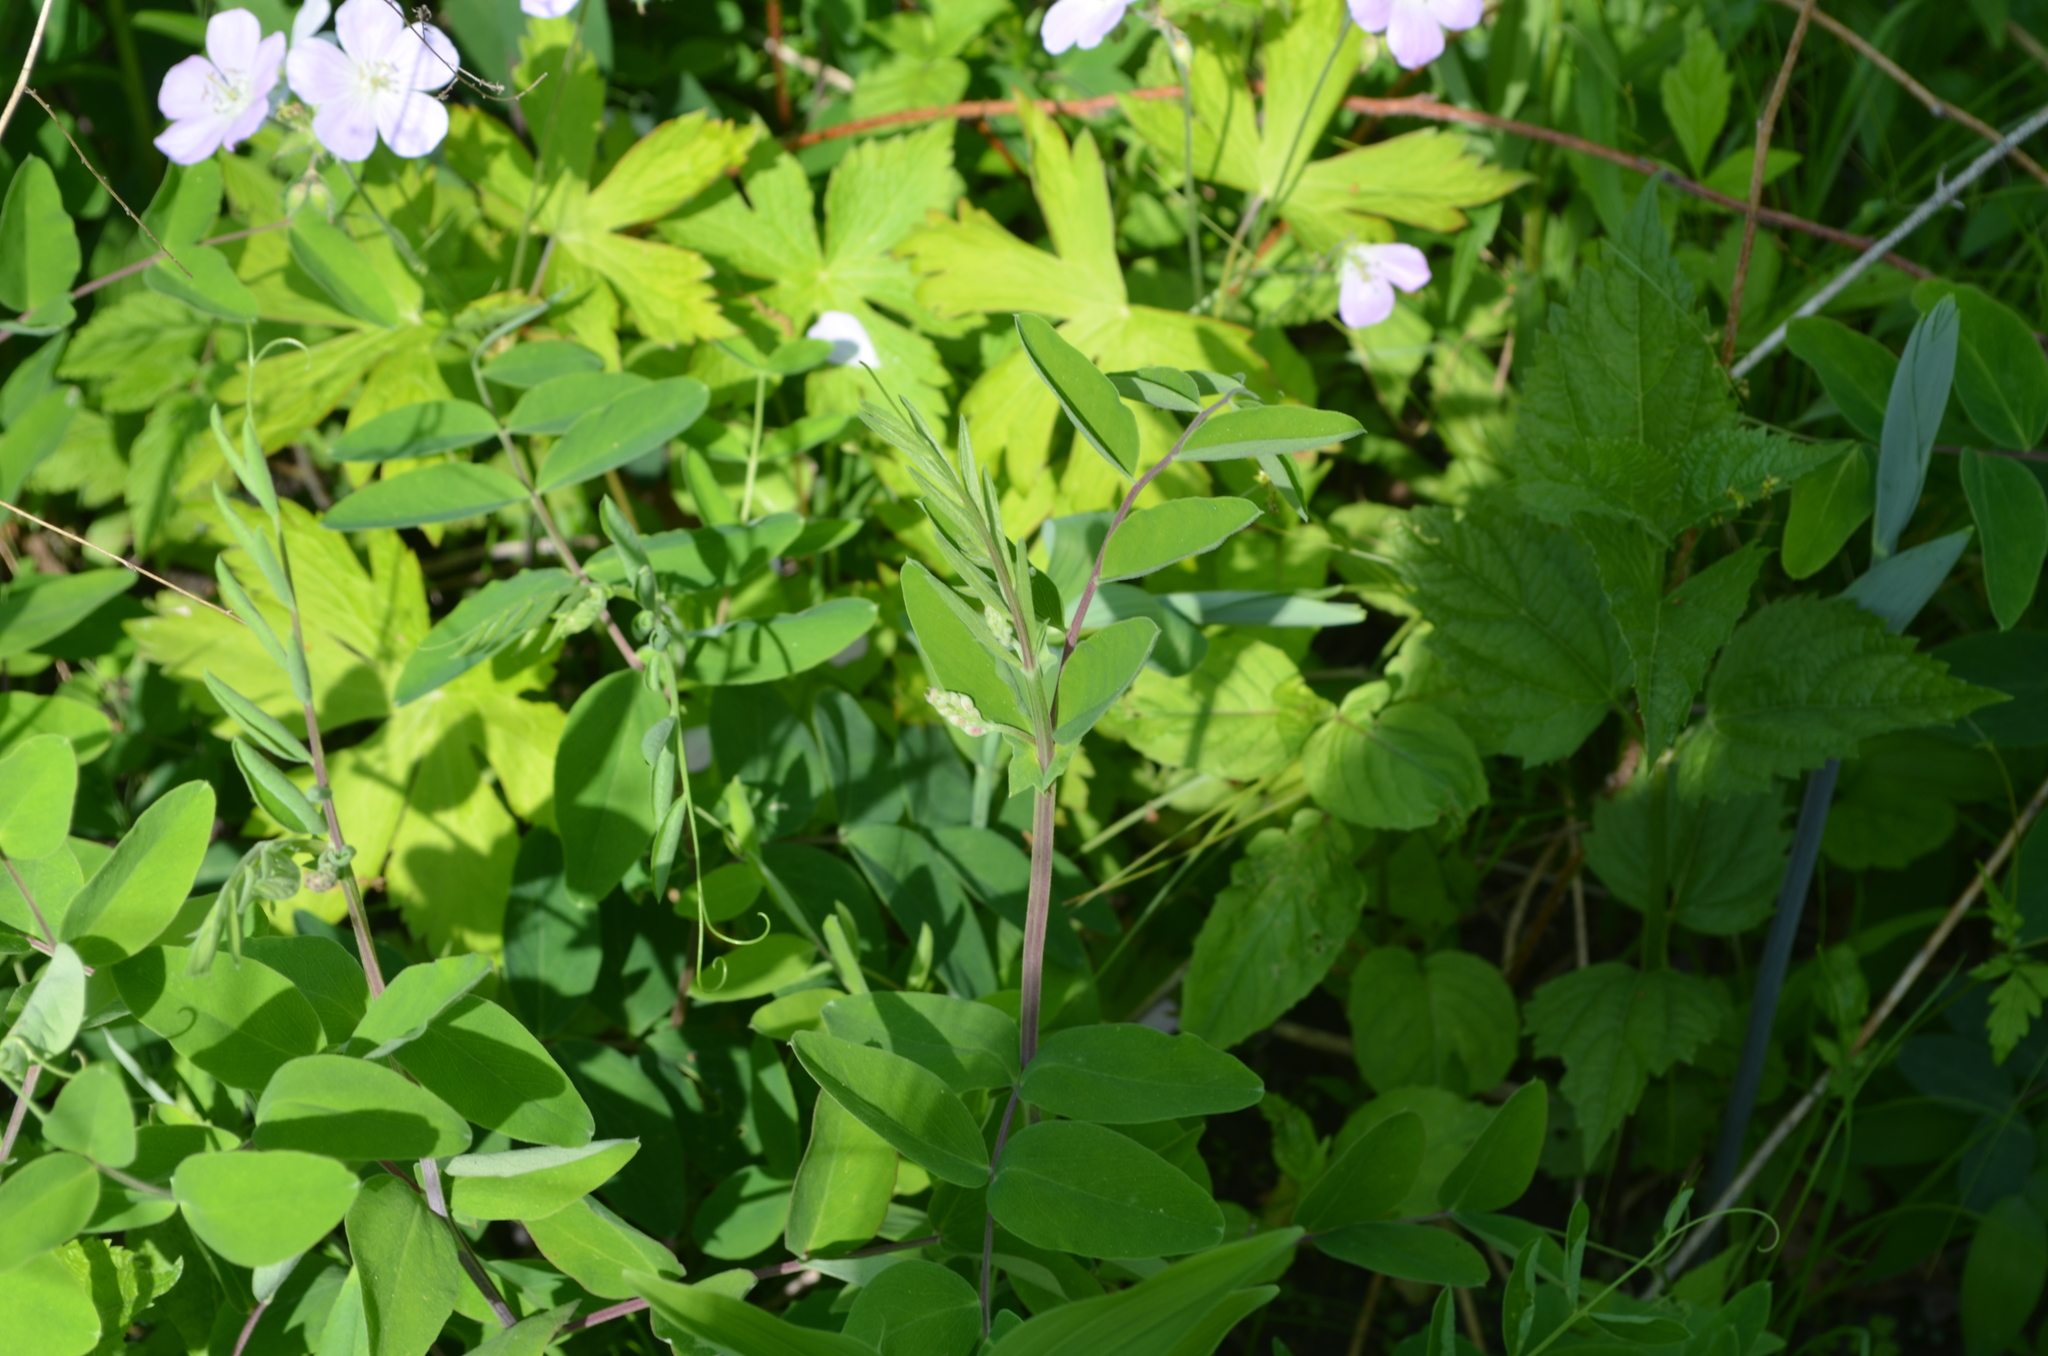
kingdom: Plantae
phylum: Tracheophyta
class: Magnoliopsida
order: Fabales
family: Fabaceae
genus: Lathyrus
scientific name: Lathyrus venosus
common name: Forest-pea
